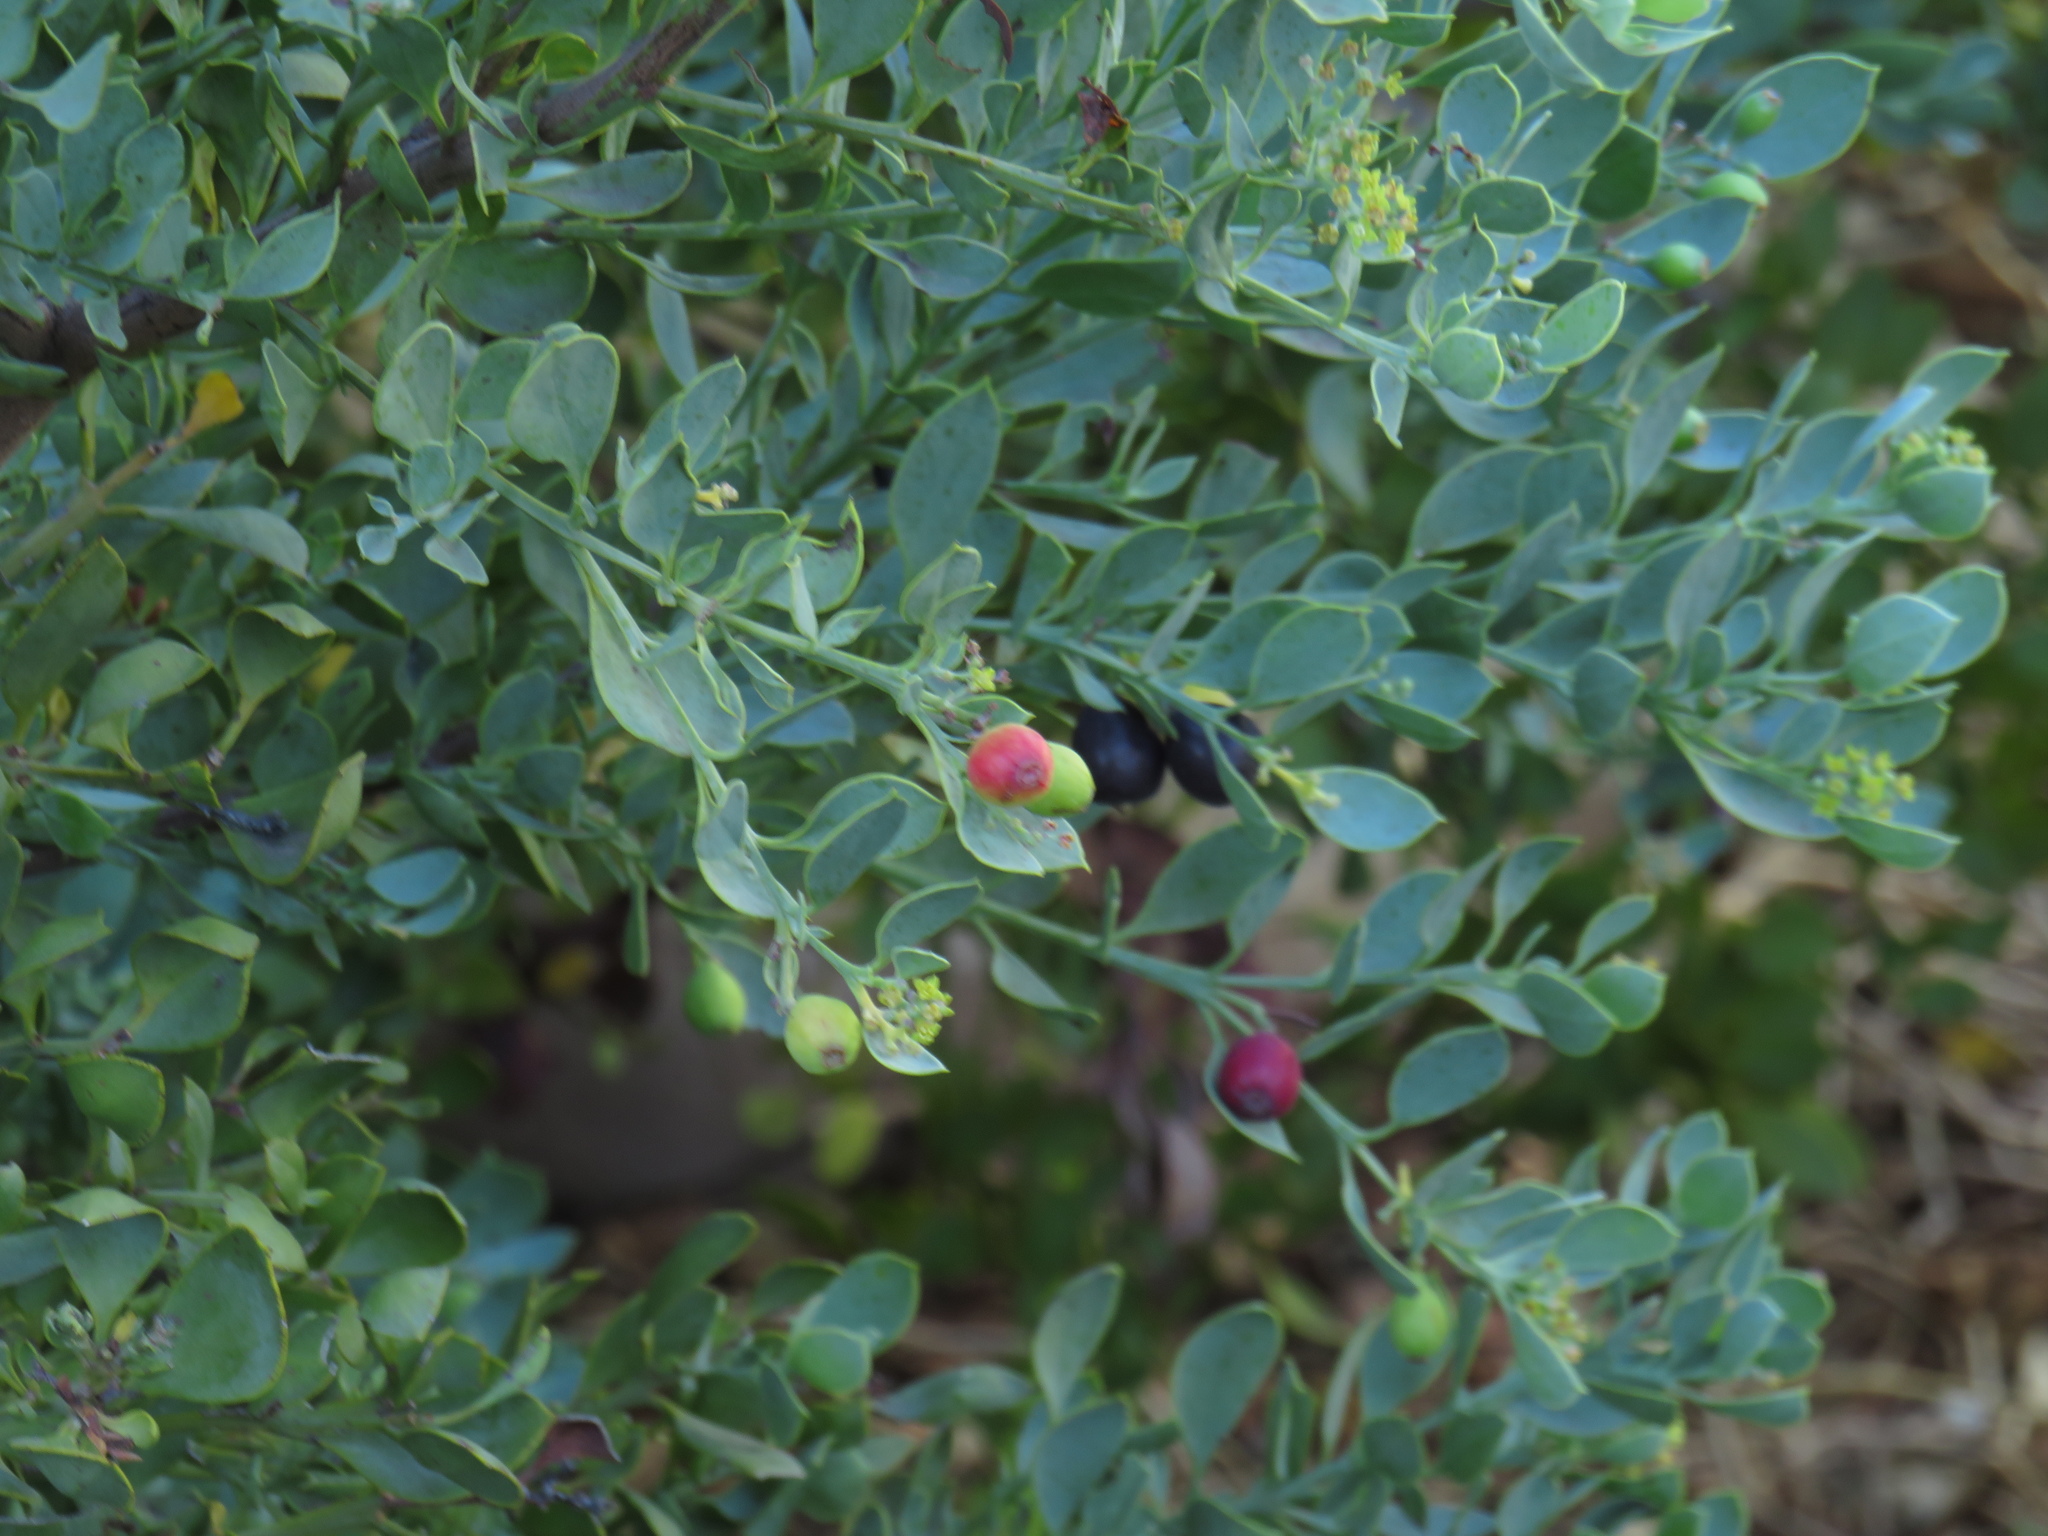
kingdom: Plantae
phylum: Tracheophyta
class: Magnoliopsida
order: Santalales
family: Santalaceae
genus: Osyris
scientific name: Osyris compressa
